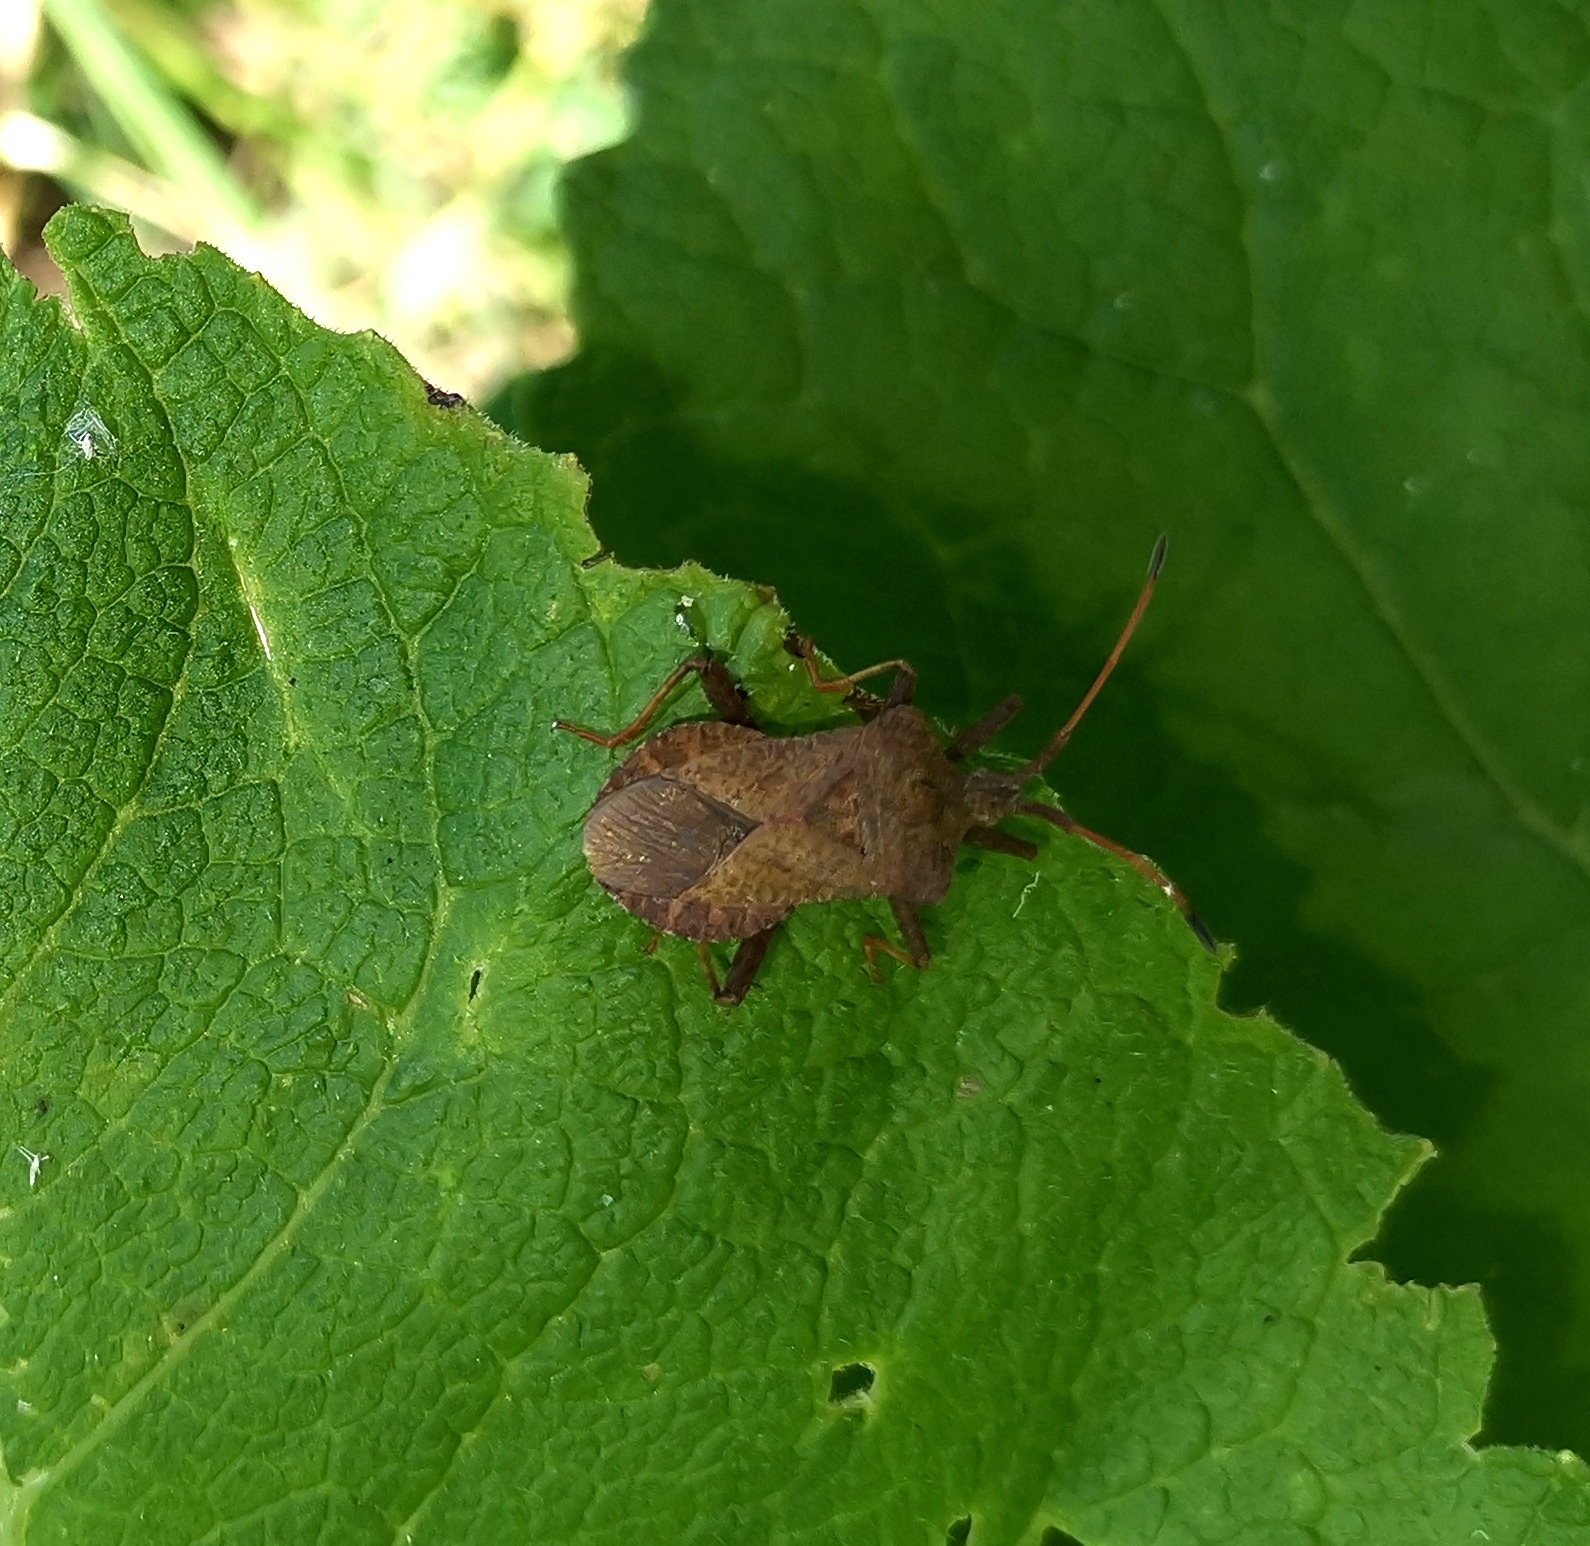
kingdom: Animalia
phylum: Arthropoda
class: Insecta
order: Hemiptera
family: Coreidae
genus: Coreus
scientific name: Coreus marginatus
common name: Dock bug
